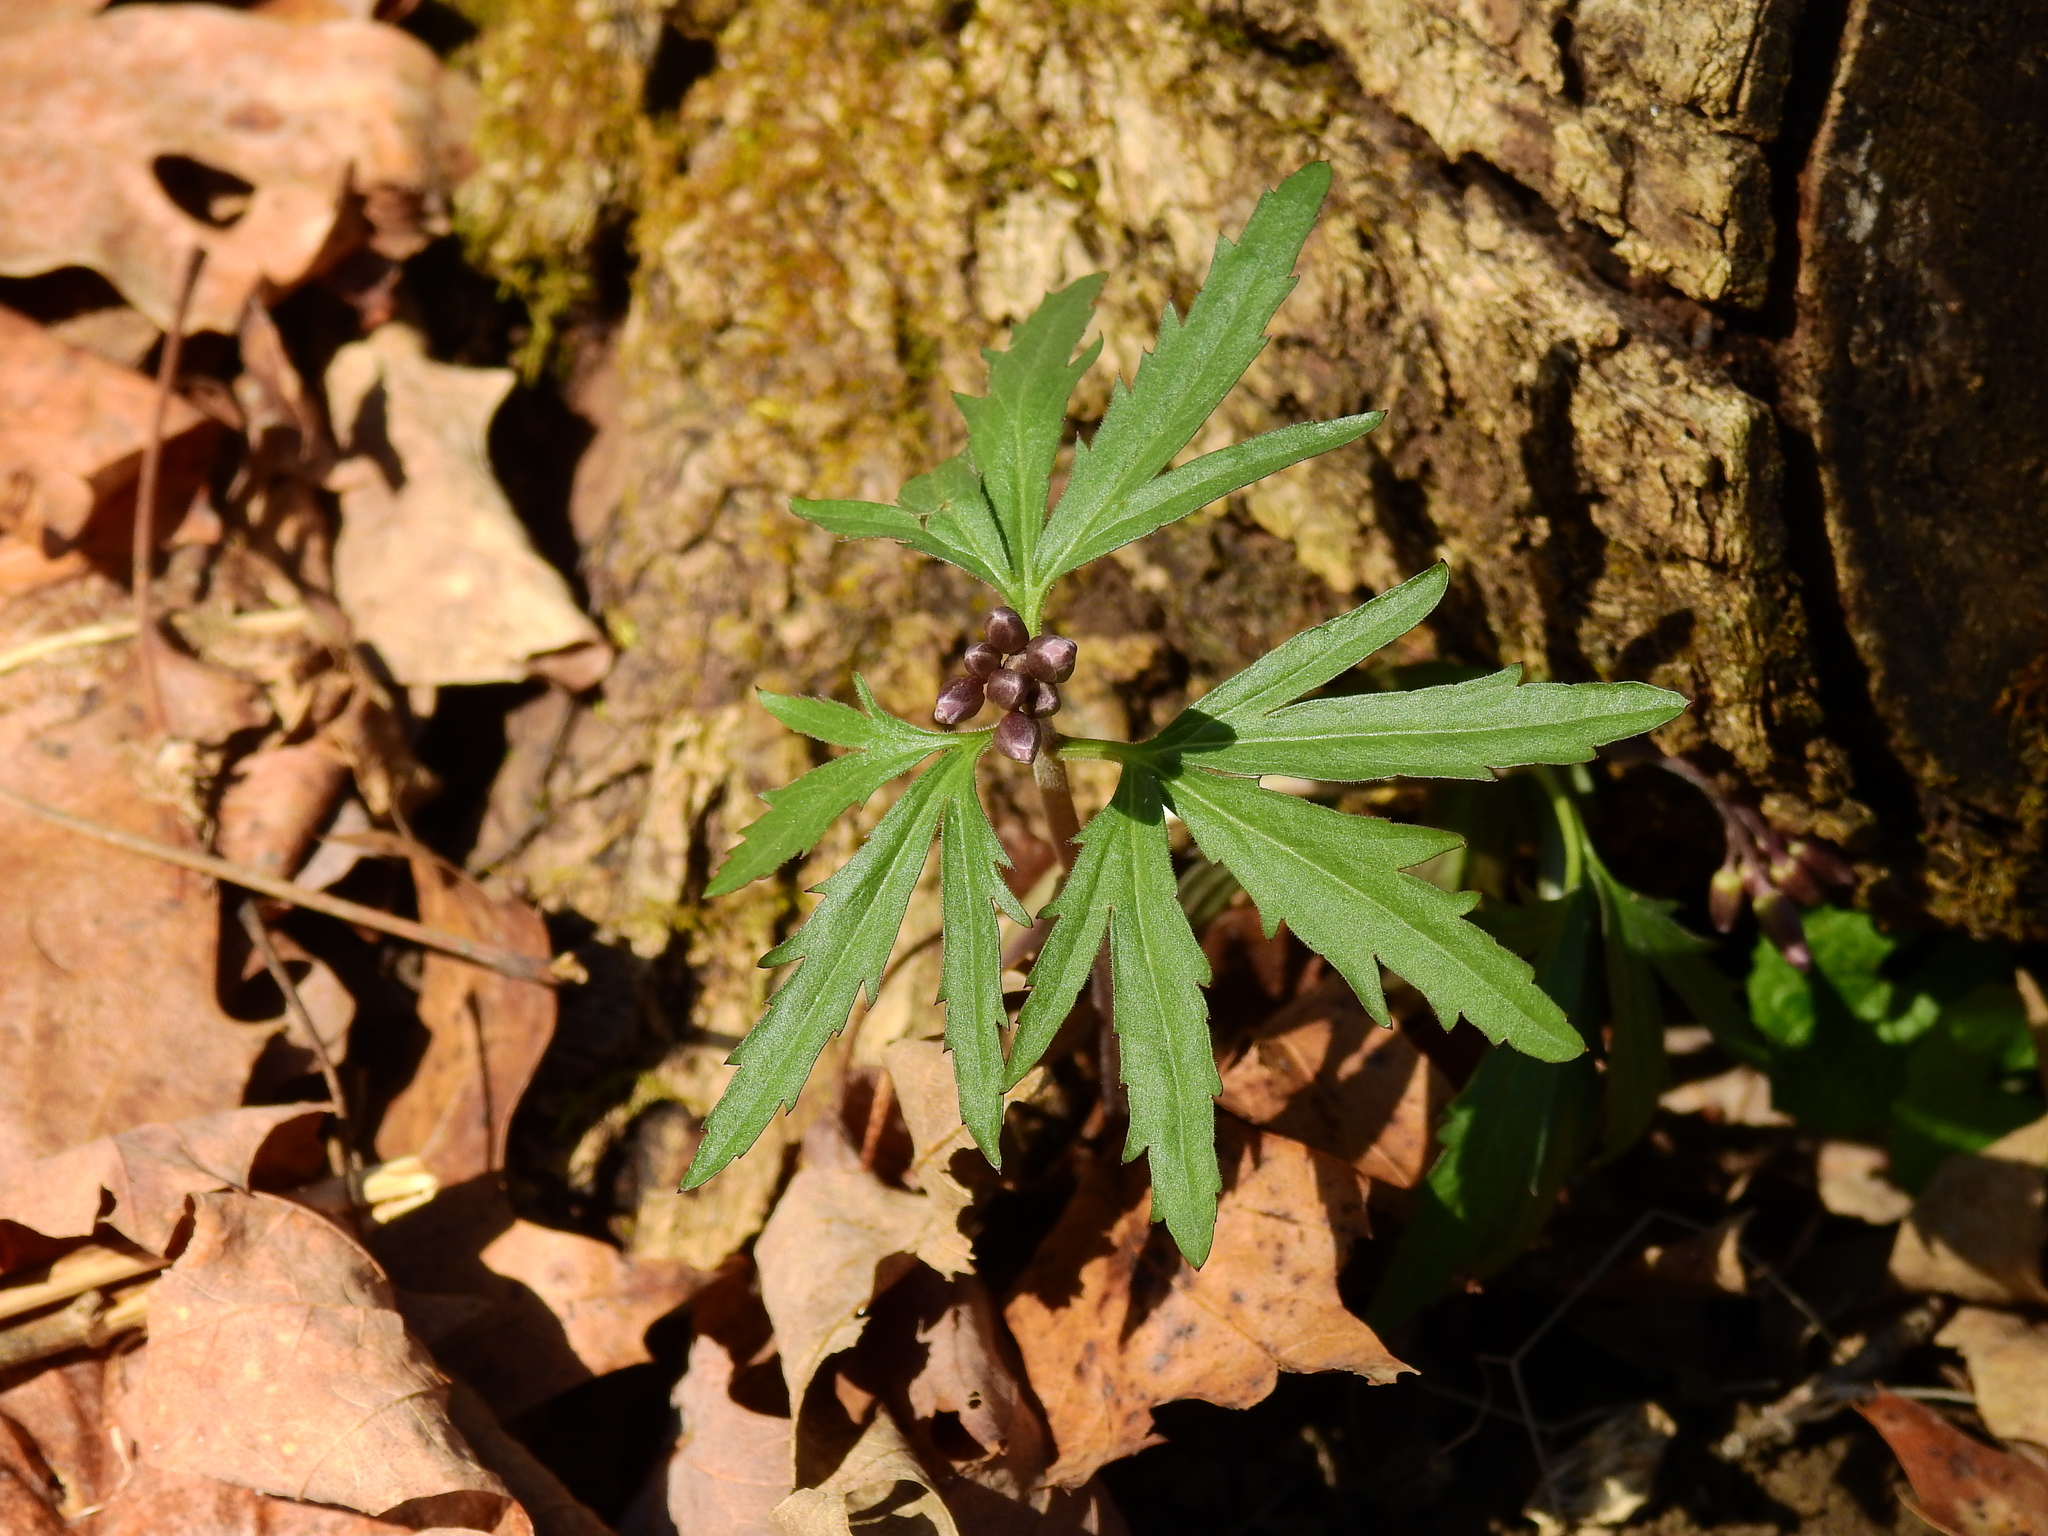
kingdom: Plantae
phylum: Tracheophyta
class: Magnoliopsida
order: Brassicales
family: Brassicaceae
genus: Cardamine
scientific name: Cardamine concatenata
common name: Cut-leaf toothcup
